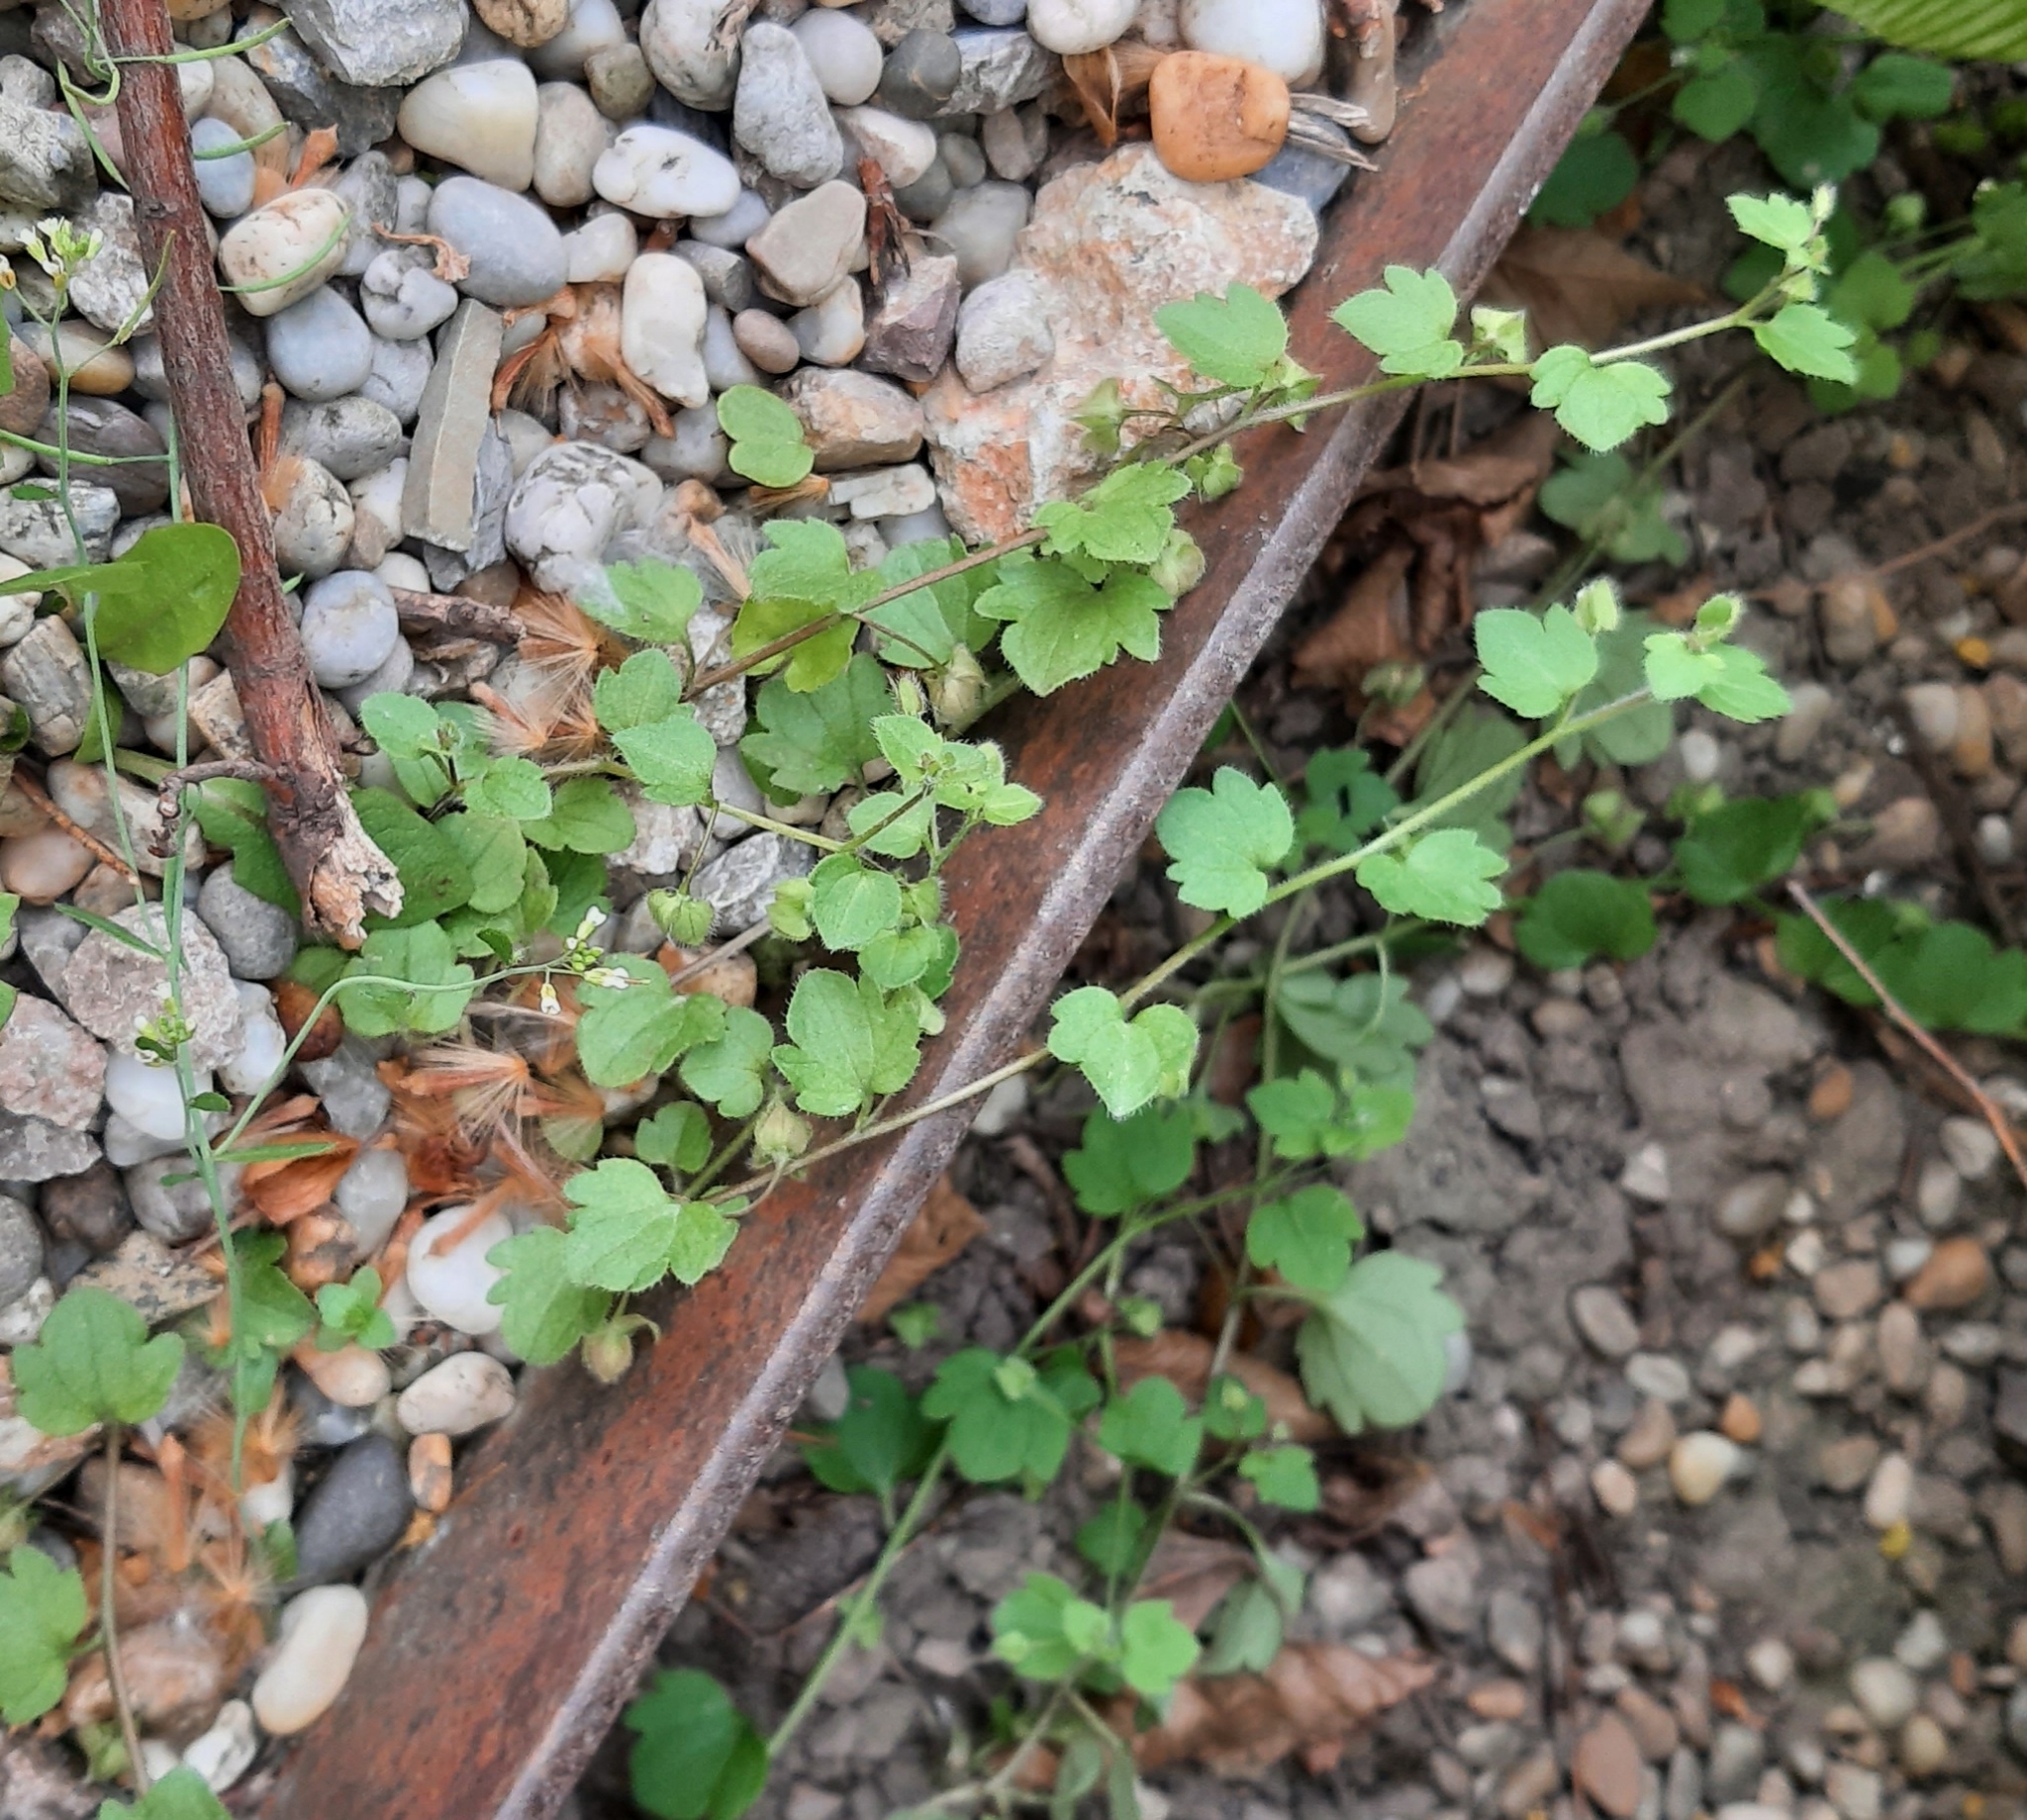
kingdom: Plantae
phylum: Tracheophyta
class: Magnoliopsida
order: Lamiales
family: Plantaginaceae
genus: Veronica
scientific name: Veronica hederifolia
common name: Ivy-leaved speedwell
